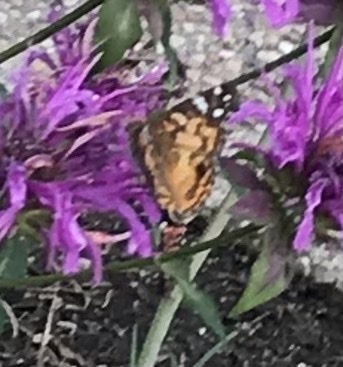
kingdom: Animalia
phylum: Arthropoda
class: Insecta
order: Lepidoptera
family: Nymphalidae
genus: Vanessa
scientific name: Vanessa virginiensis
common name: American lady
